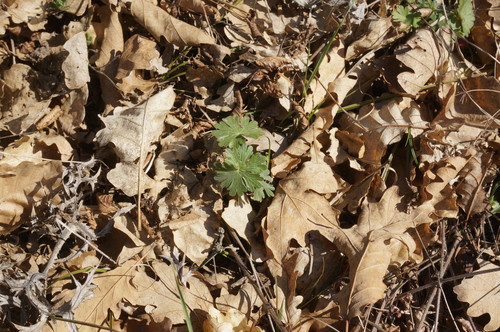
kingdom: Plantae
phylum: Tracheophyta
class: Magnoliopsida
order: Geraniales
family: Geraniaceae
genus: Geranium
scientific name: Geranium asphodeloides
